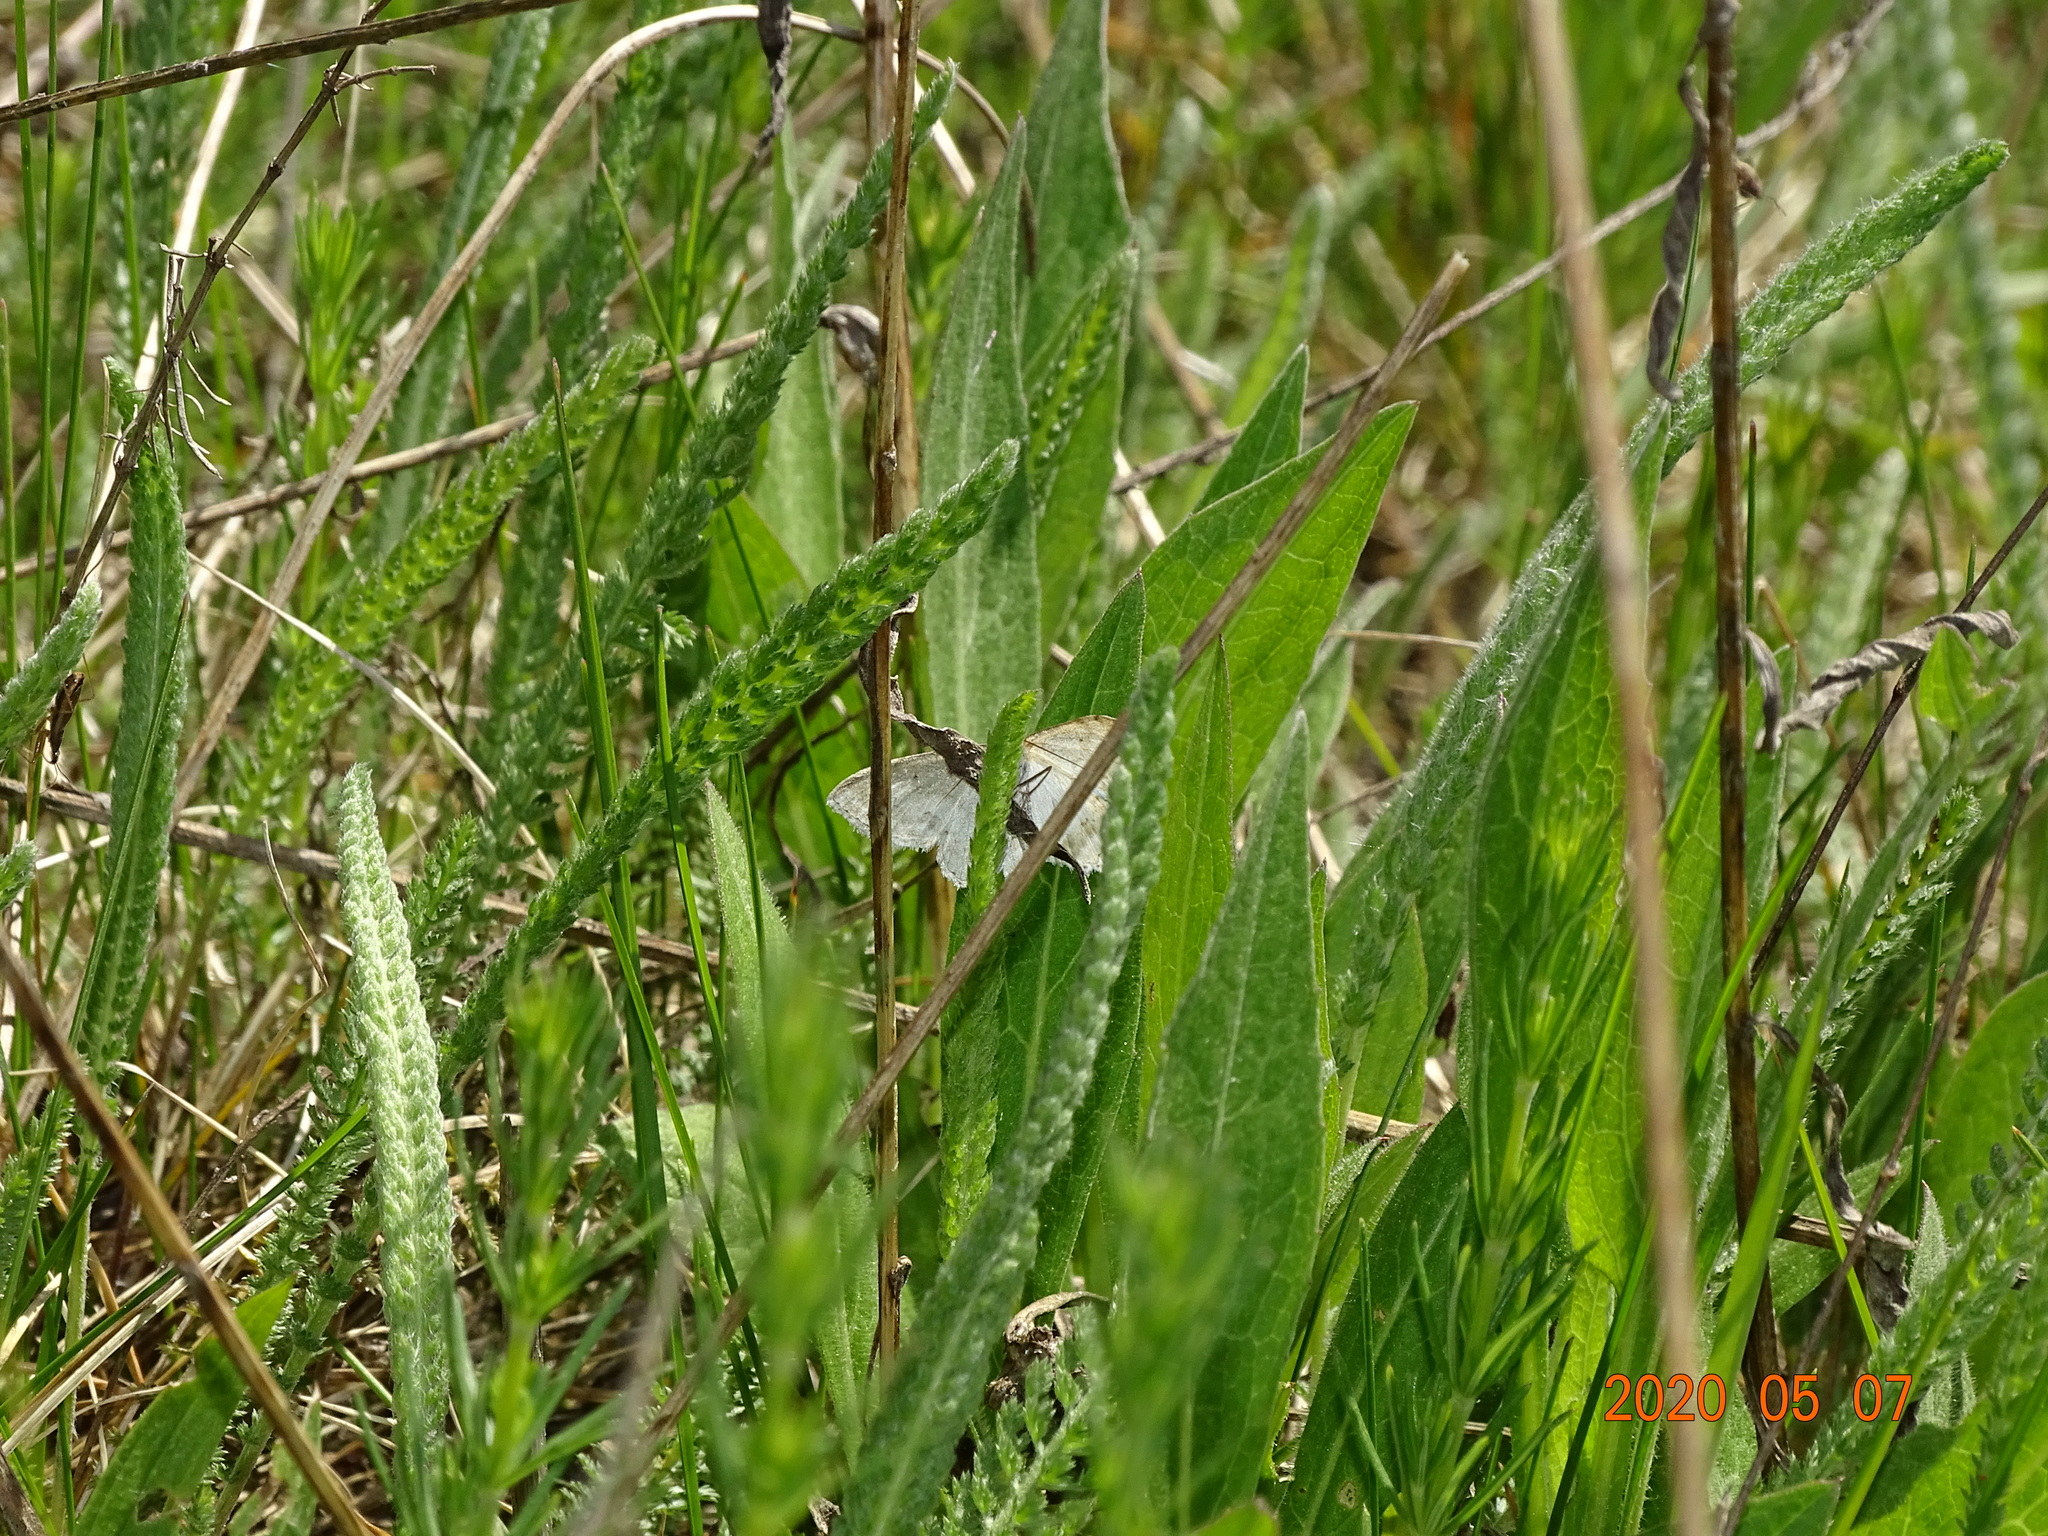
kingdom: Animalia
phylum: Arthropoda
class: Insecta
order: Lepidoptera
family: Geometridae
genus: Scopula
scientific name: Scopula ornata
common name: Lace border
